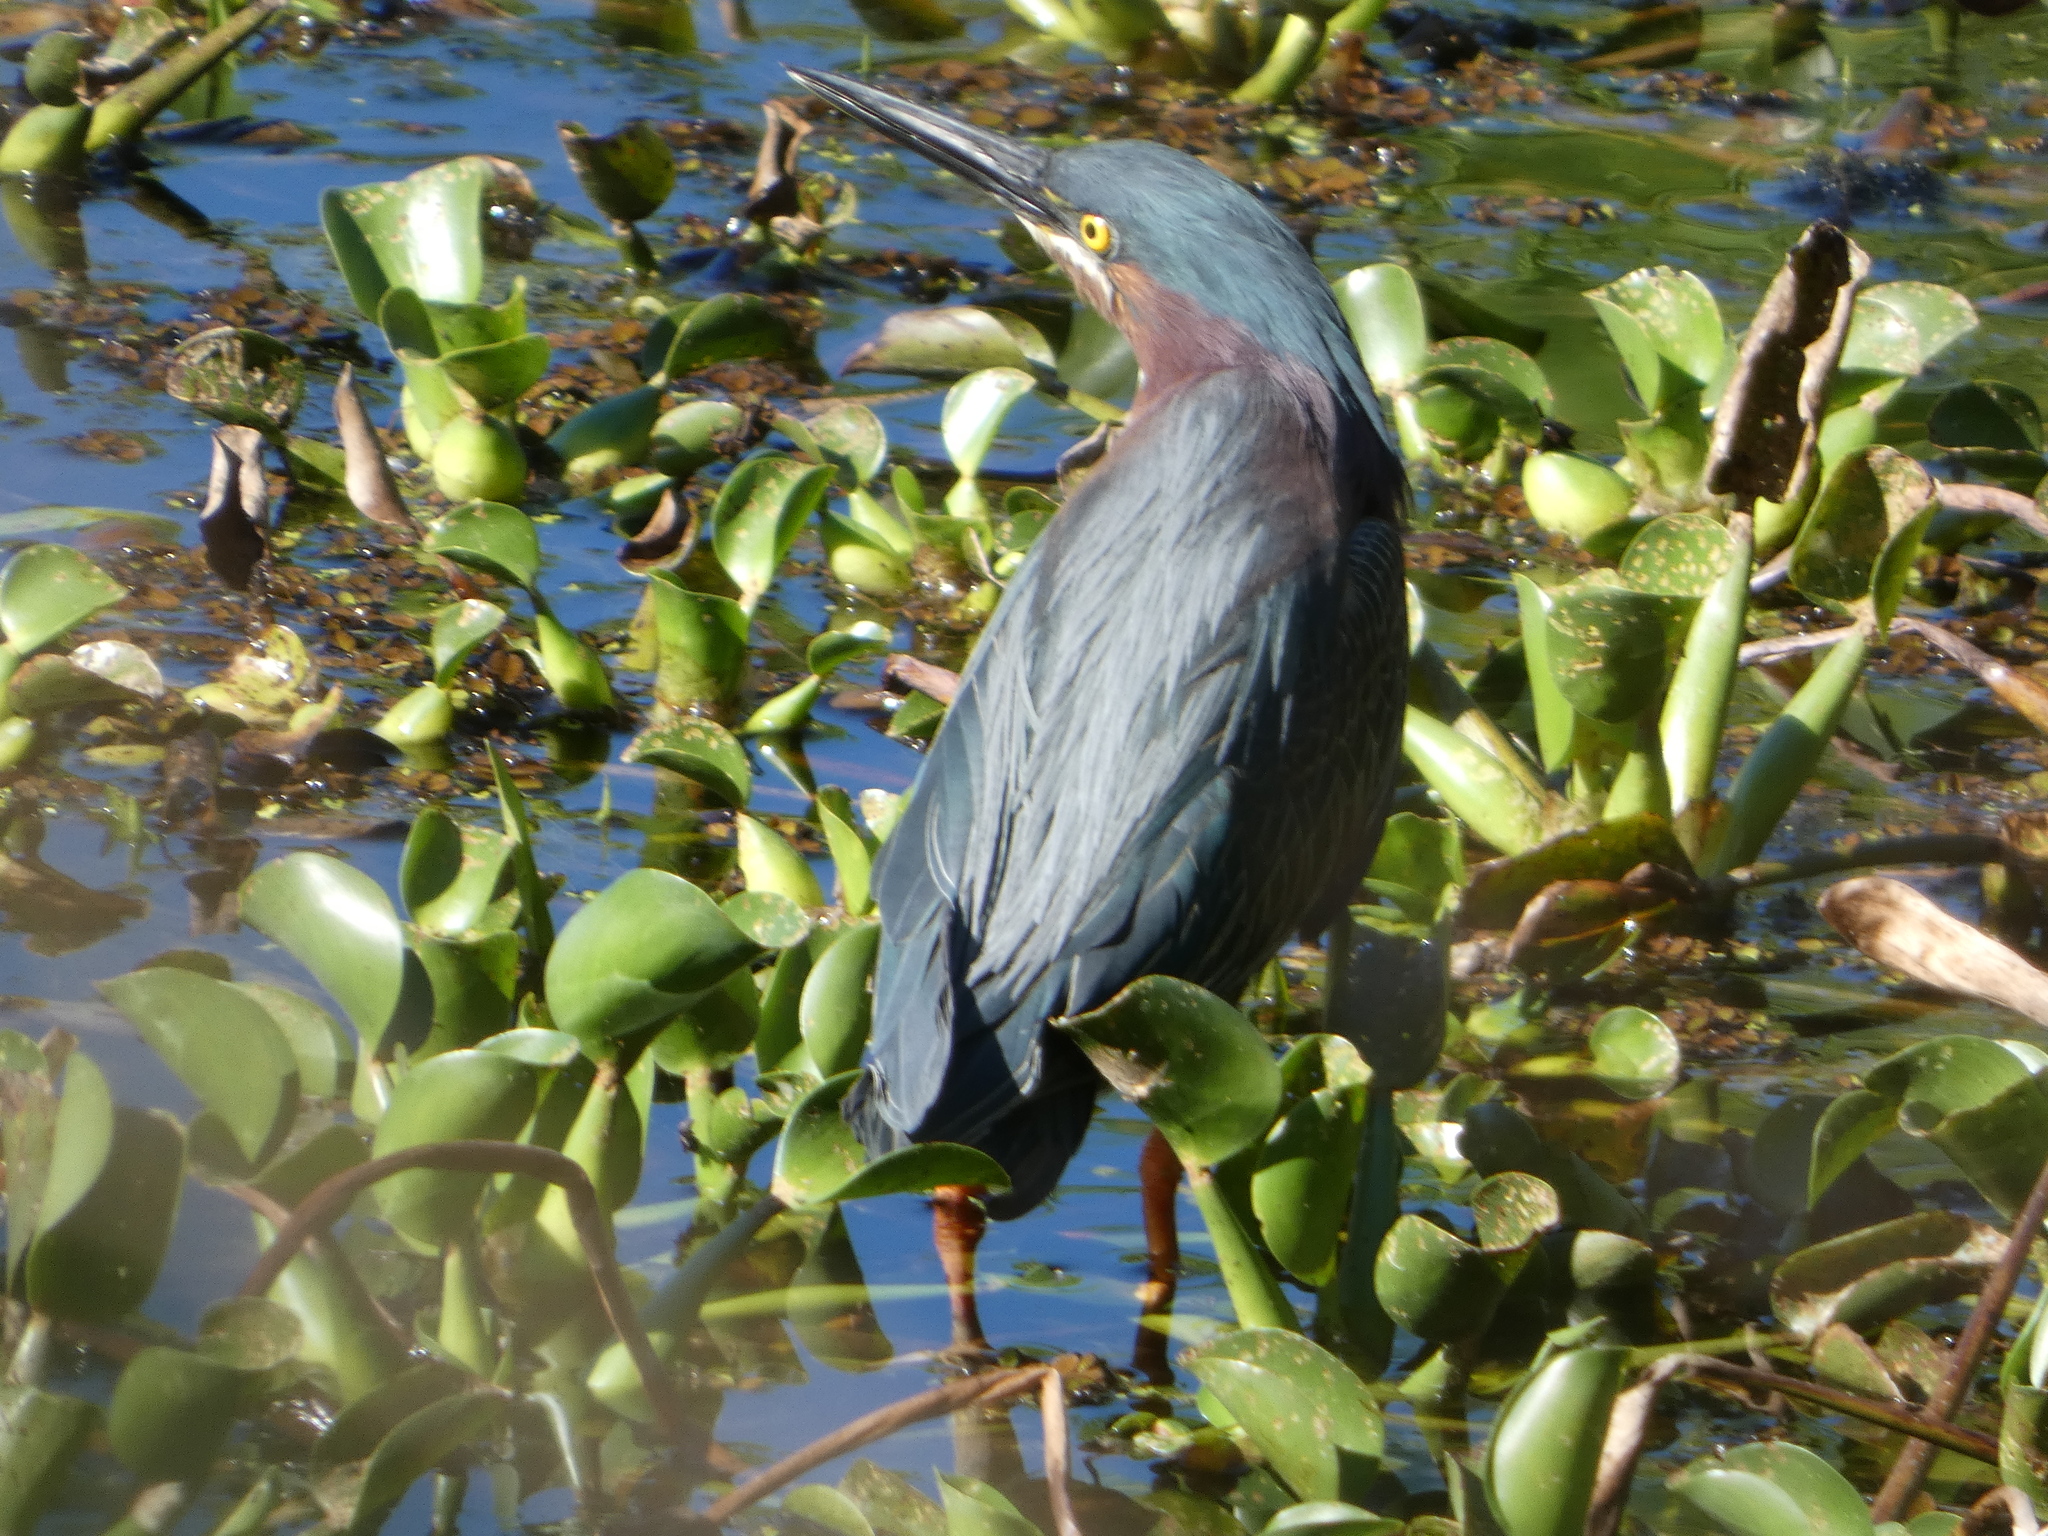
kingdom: Animalia
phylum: Chordata
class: Aves
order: Pelecaniformes
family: Ardeidae
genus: Butorides
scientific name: Butorides virescens
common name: Green heron
